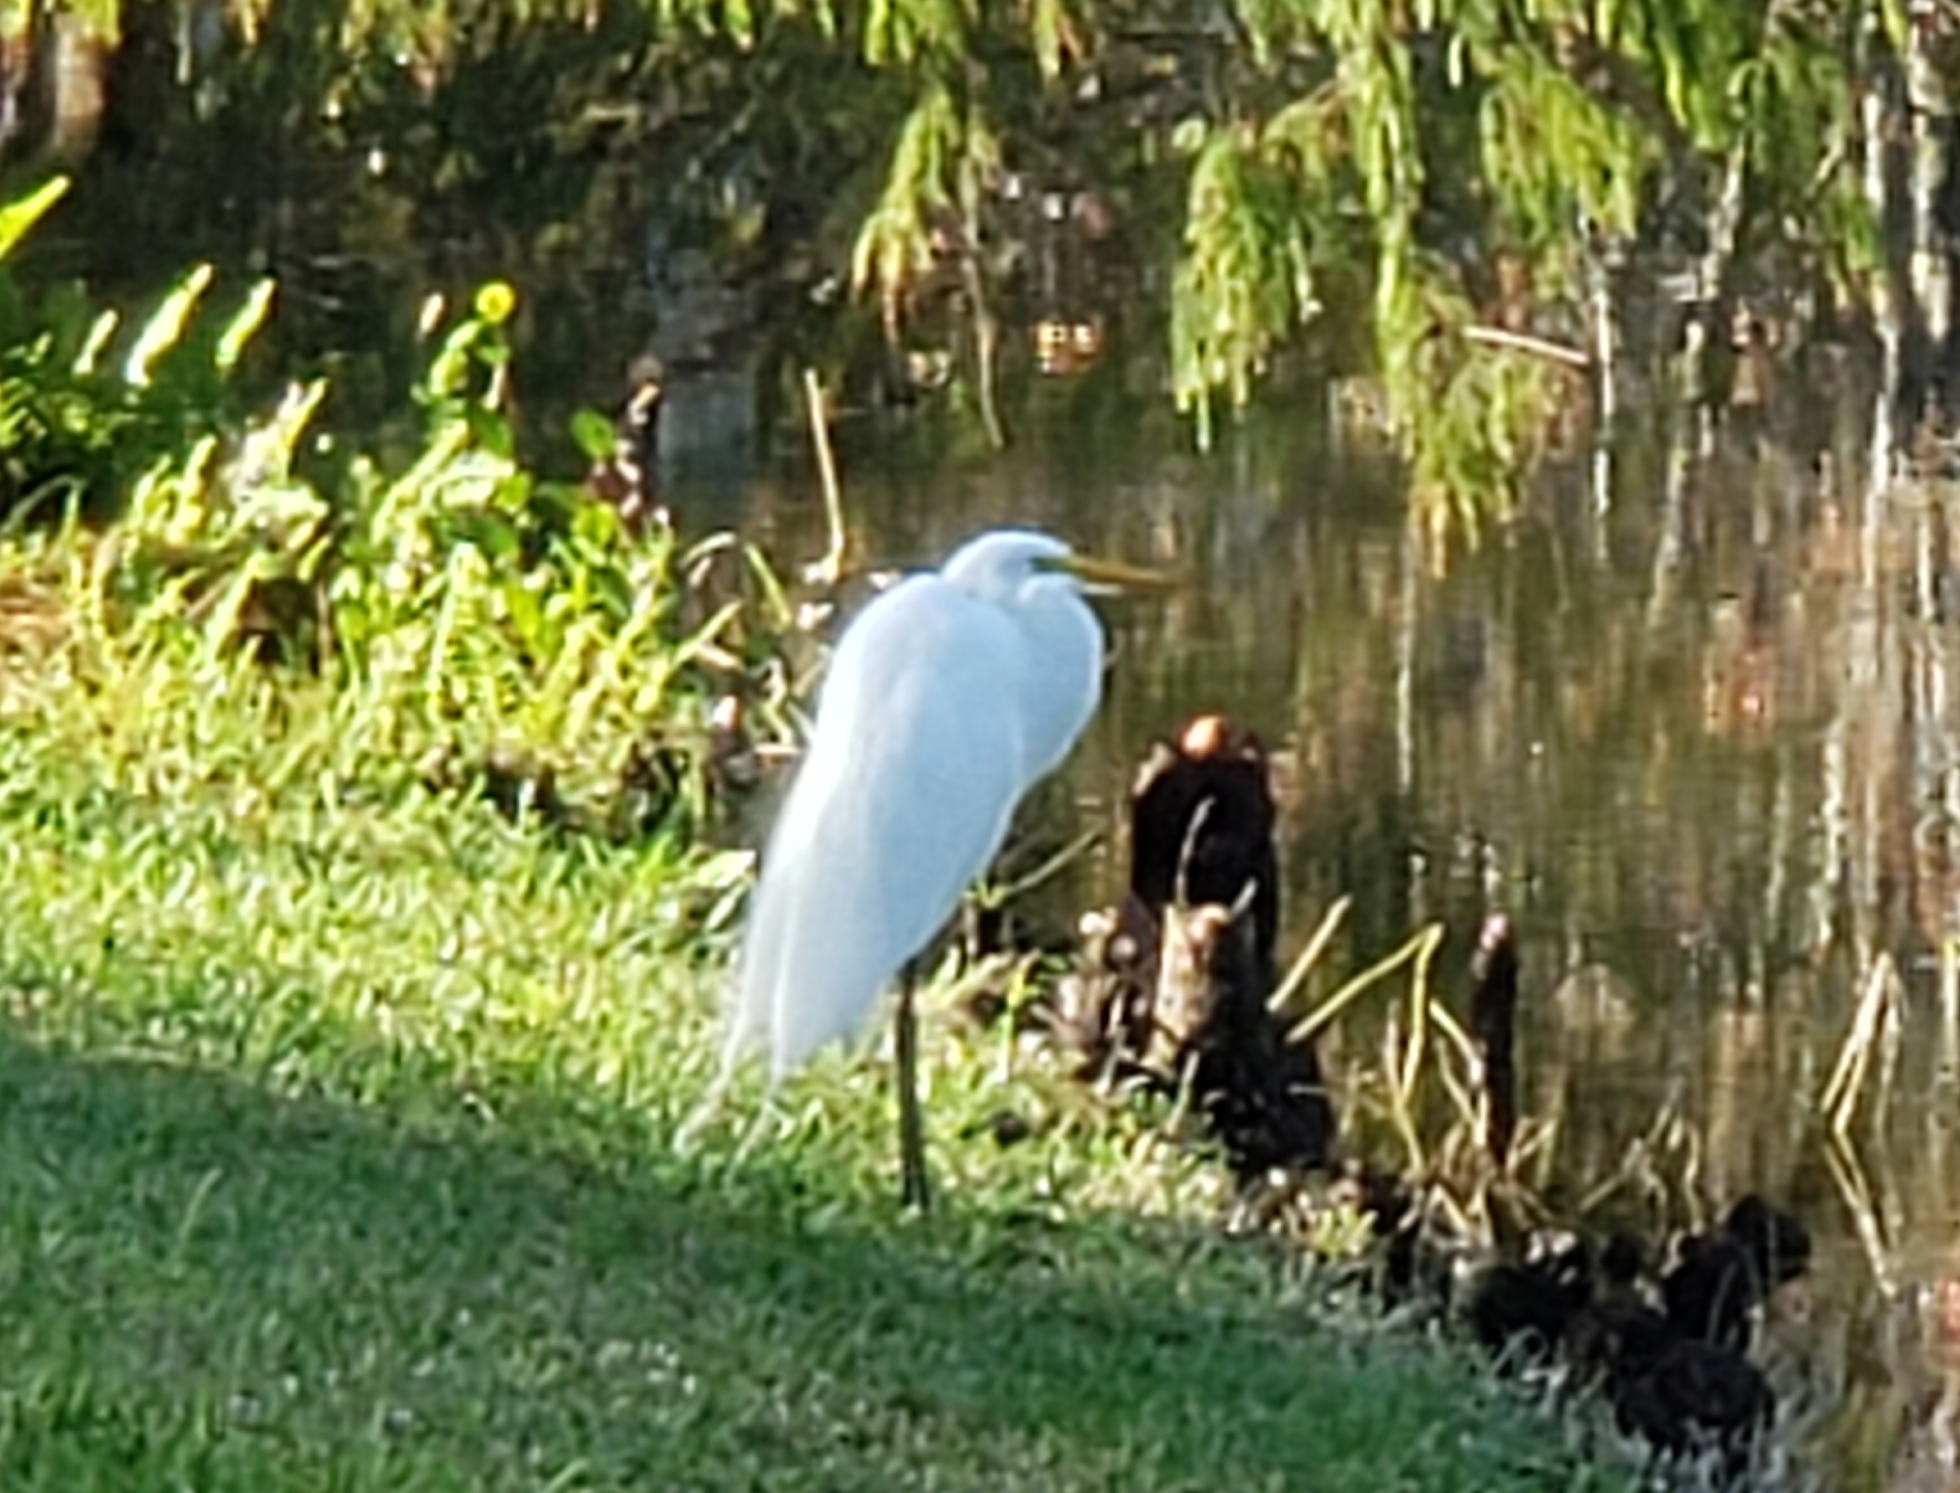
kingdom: Animalia
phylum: Chordata
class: Aves
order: Pelecaniformes
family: Ardeidae
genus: Ardea
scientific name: Ardea alba
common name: Great egret
